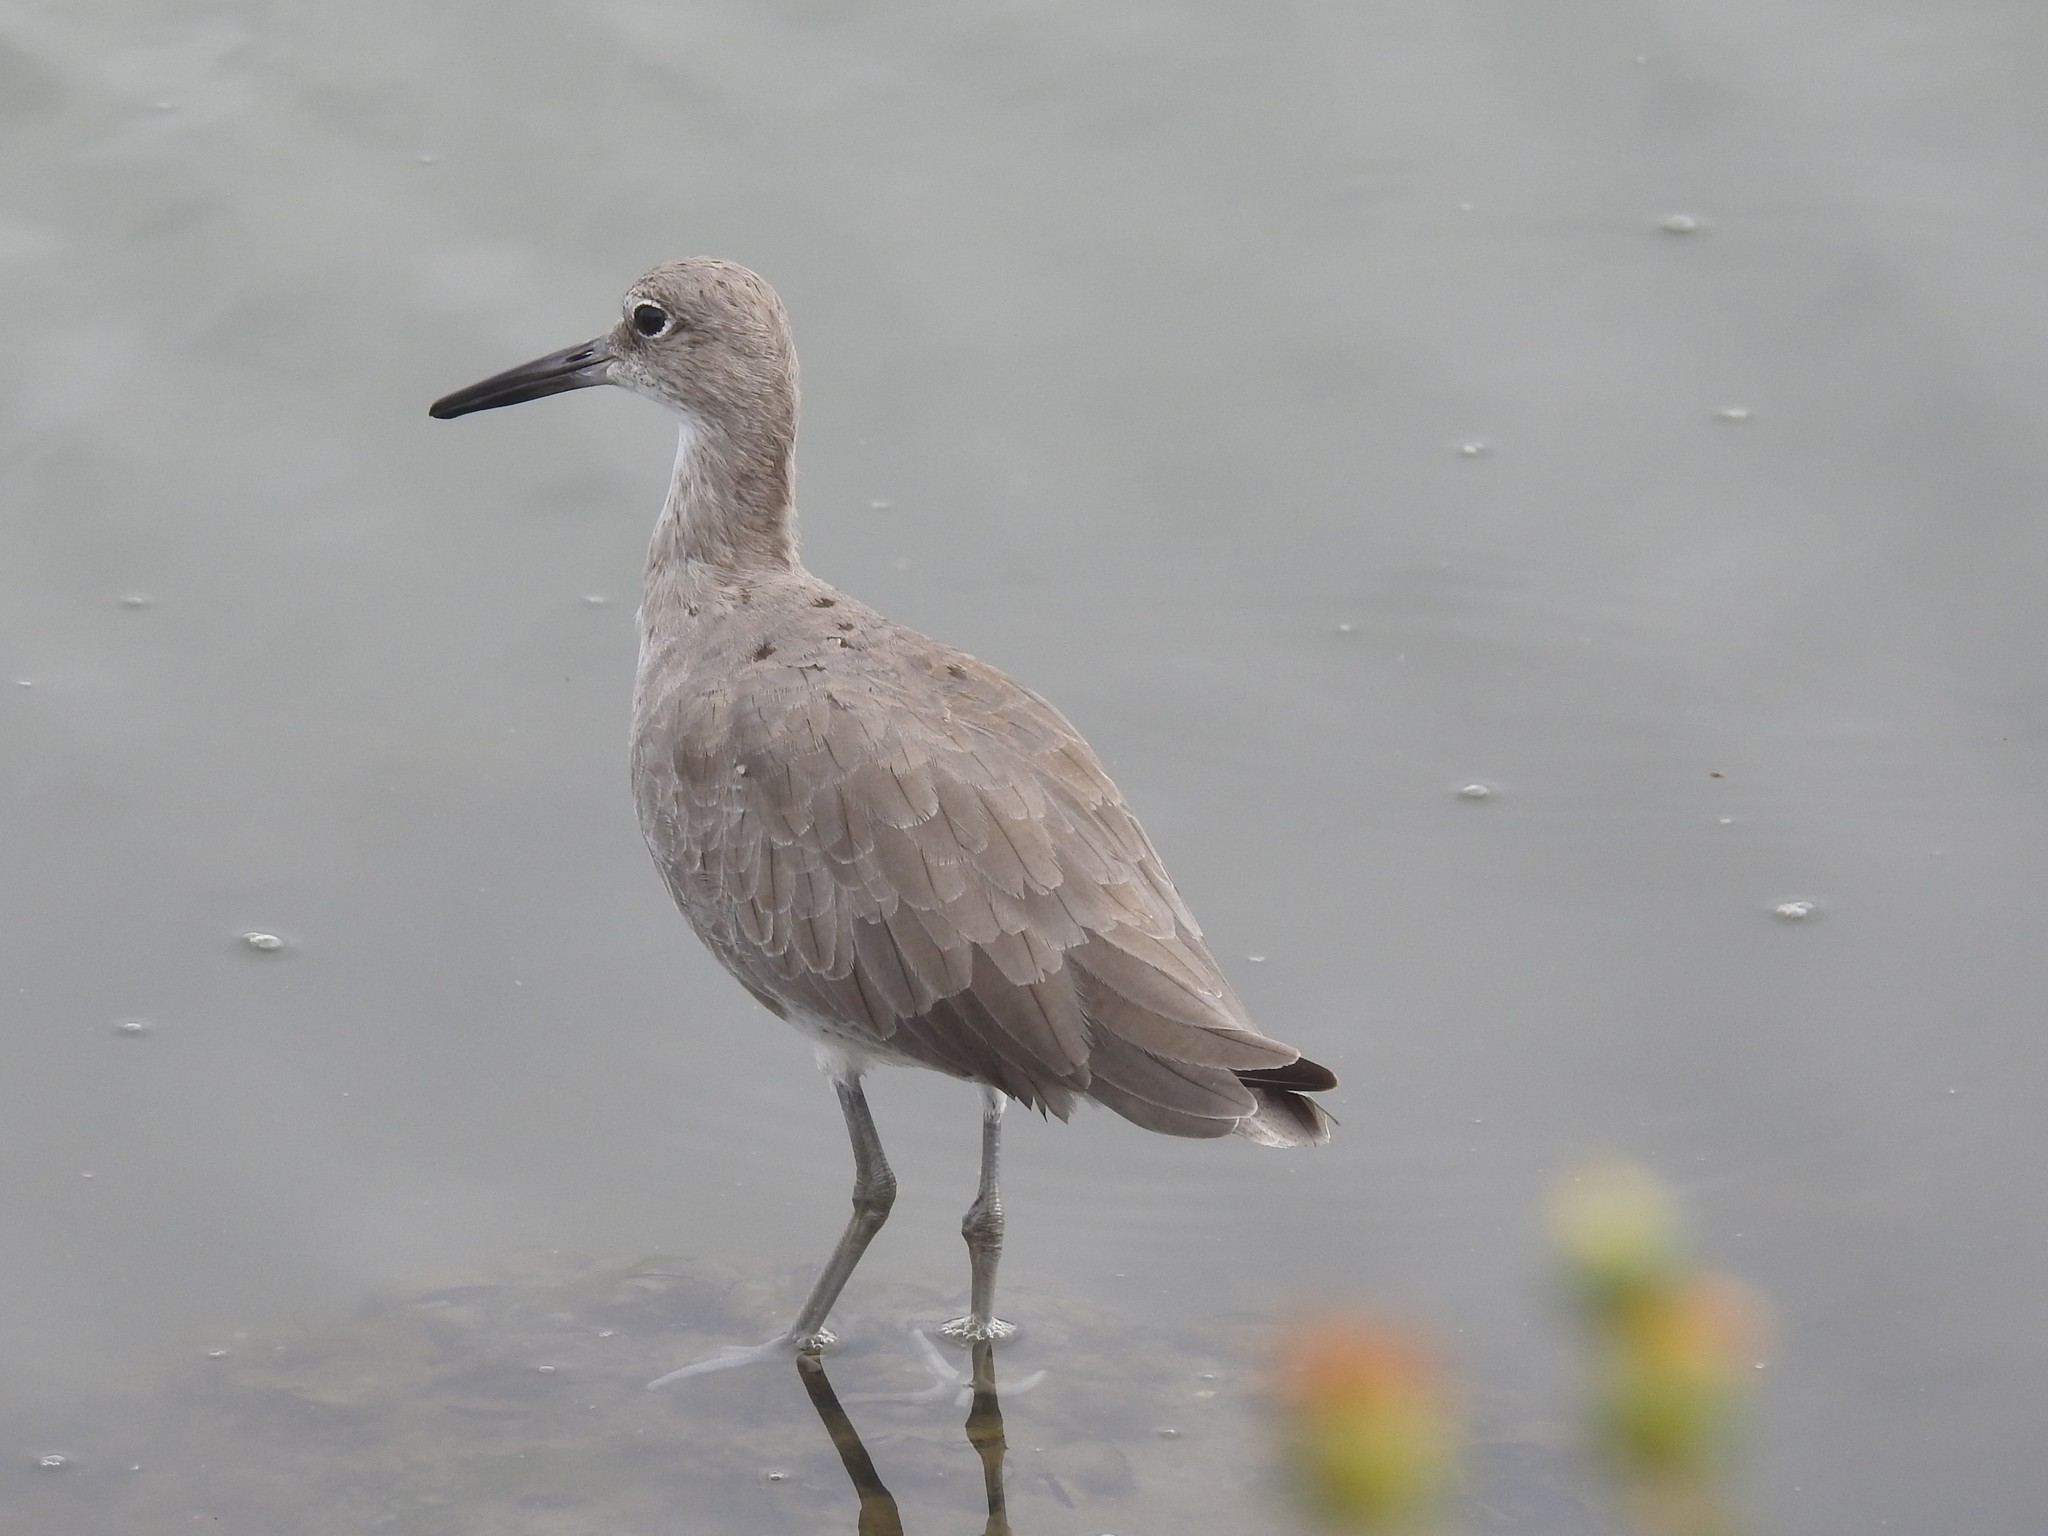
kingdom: Animalia
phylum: Chordata
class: Aves
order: Charadriiformes
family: Scolopacidae
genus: Tringa
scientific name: Tringa semipalmata
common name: Willet
